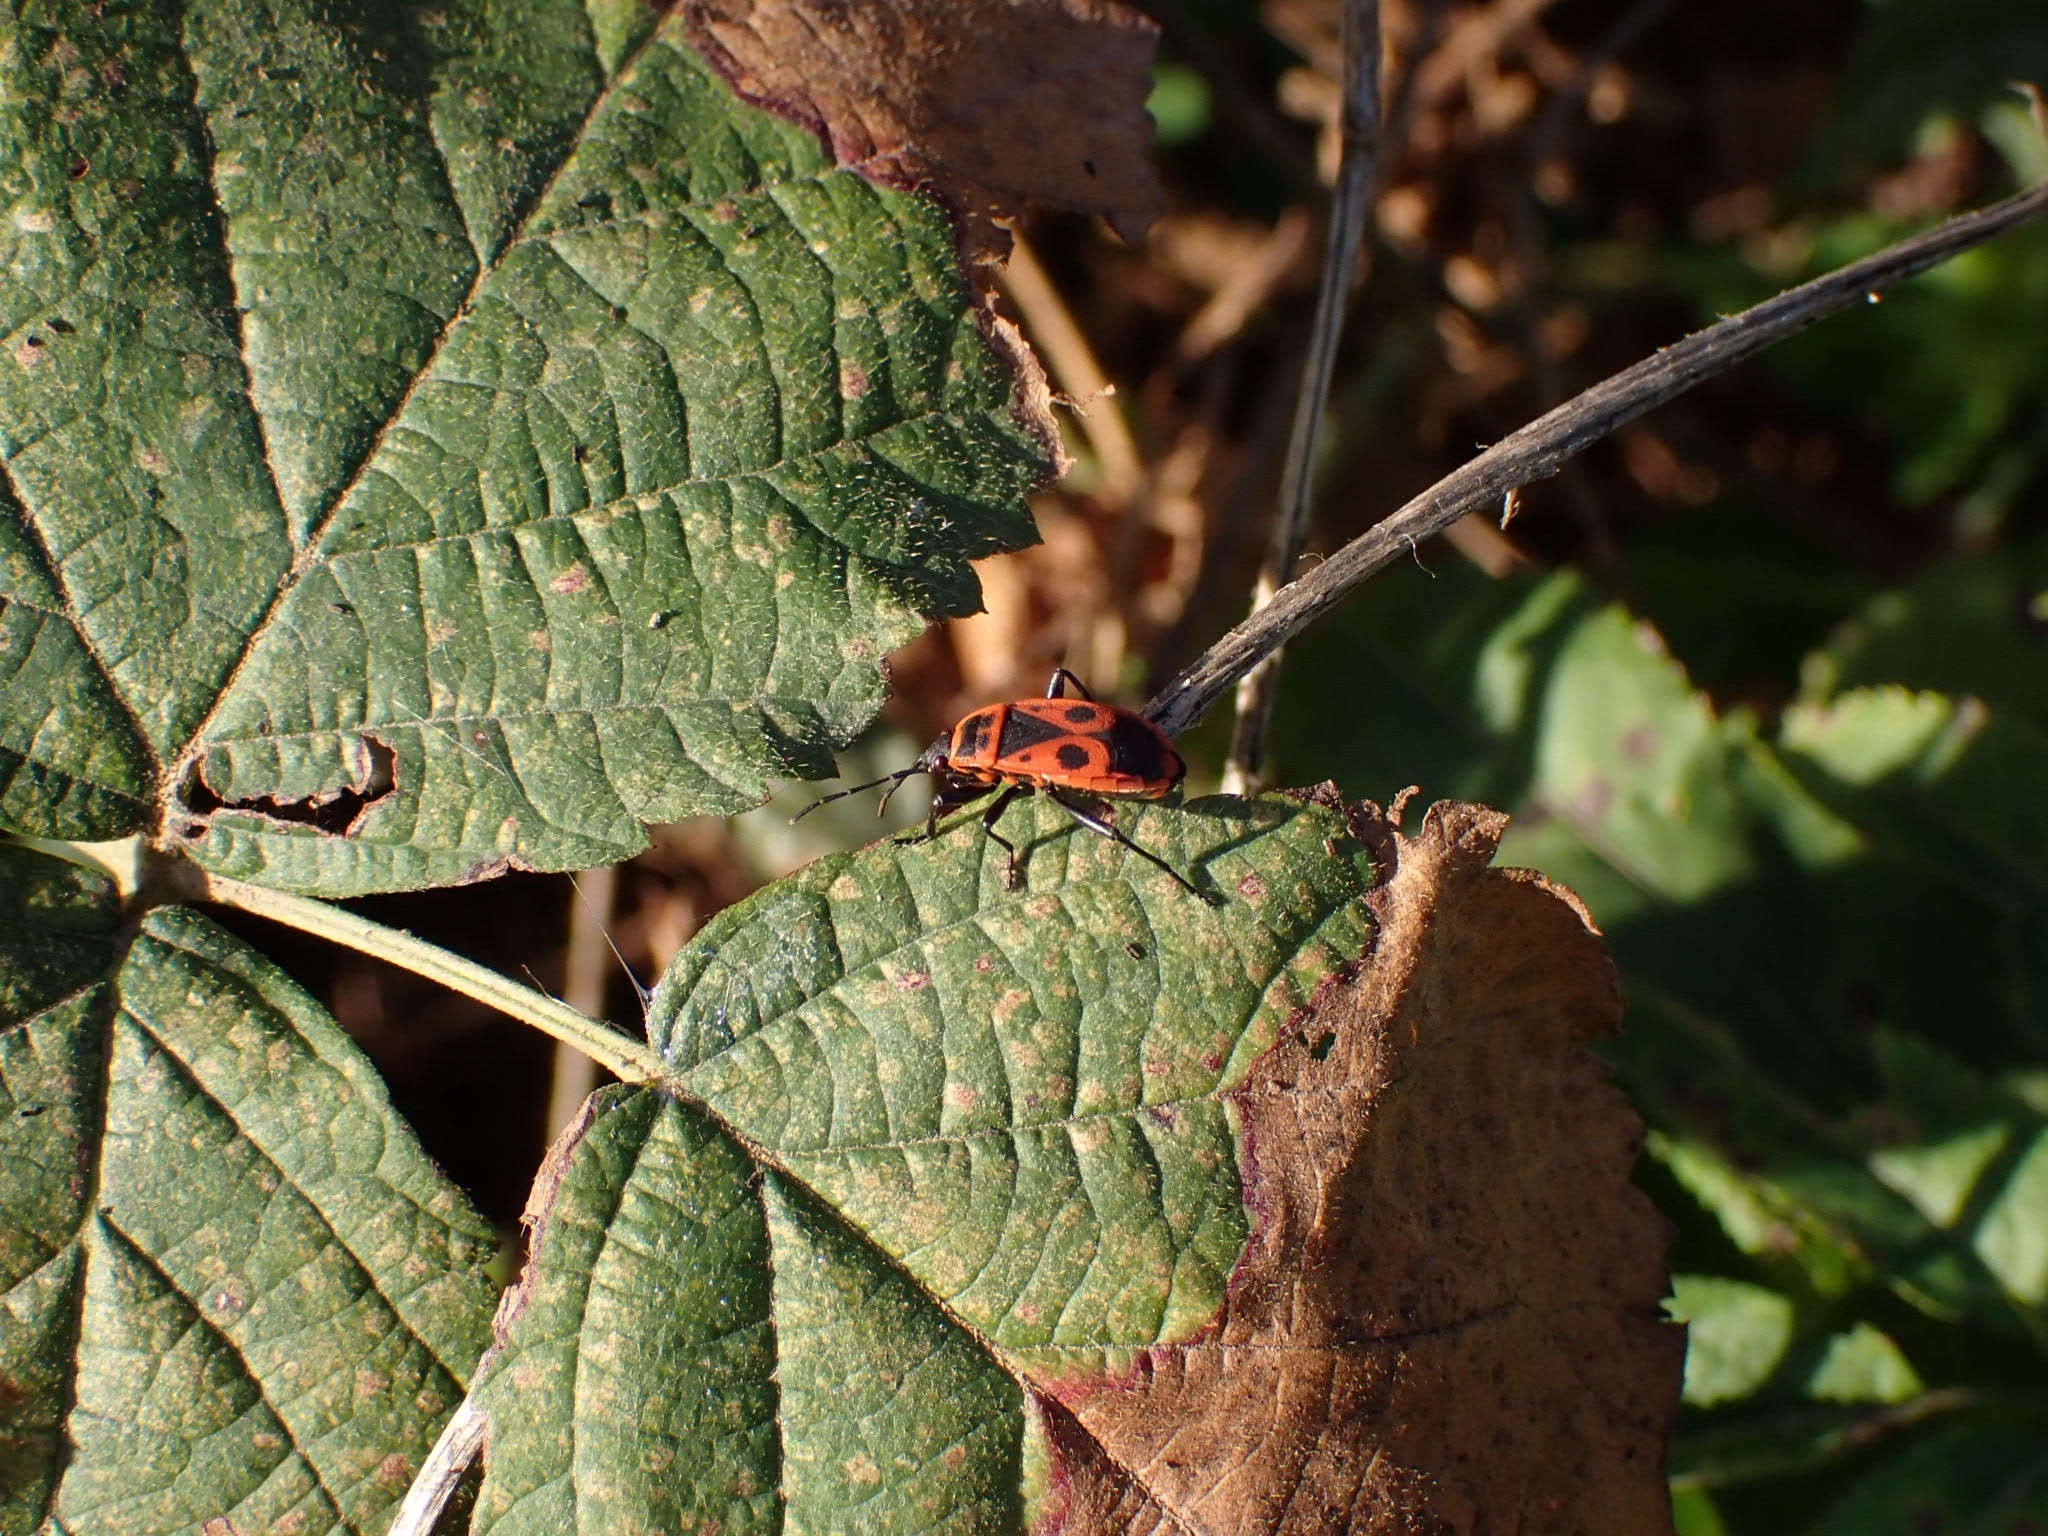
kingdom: Animalia
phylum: Arthropoda
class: Insecta
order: Hemiptera
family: Pyrrhocoridae
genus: Pyrrhocoris
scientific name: Pyrrhocoris apterus
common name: Firebug
